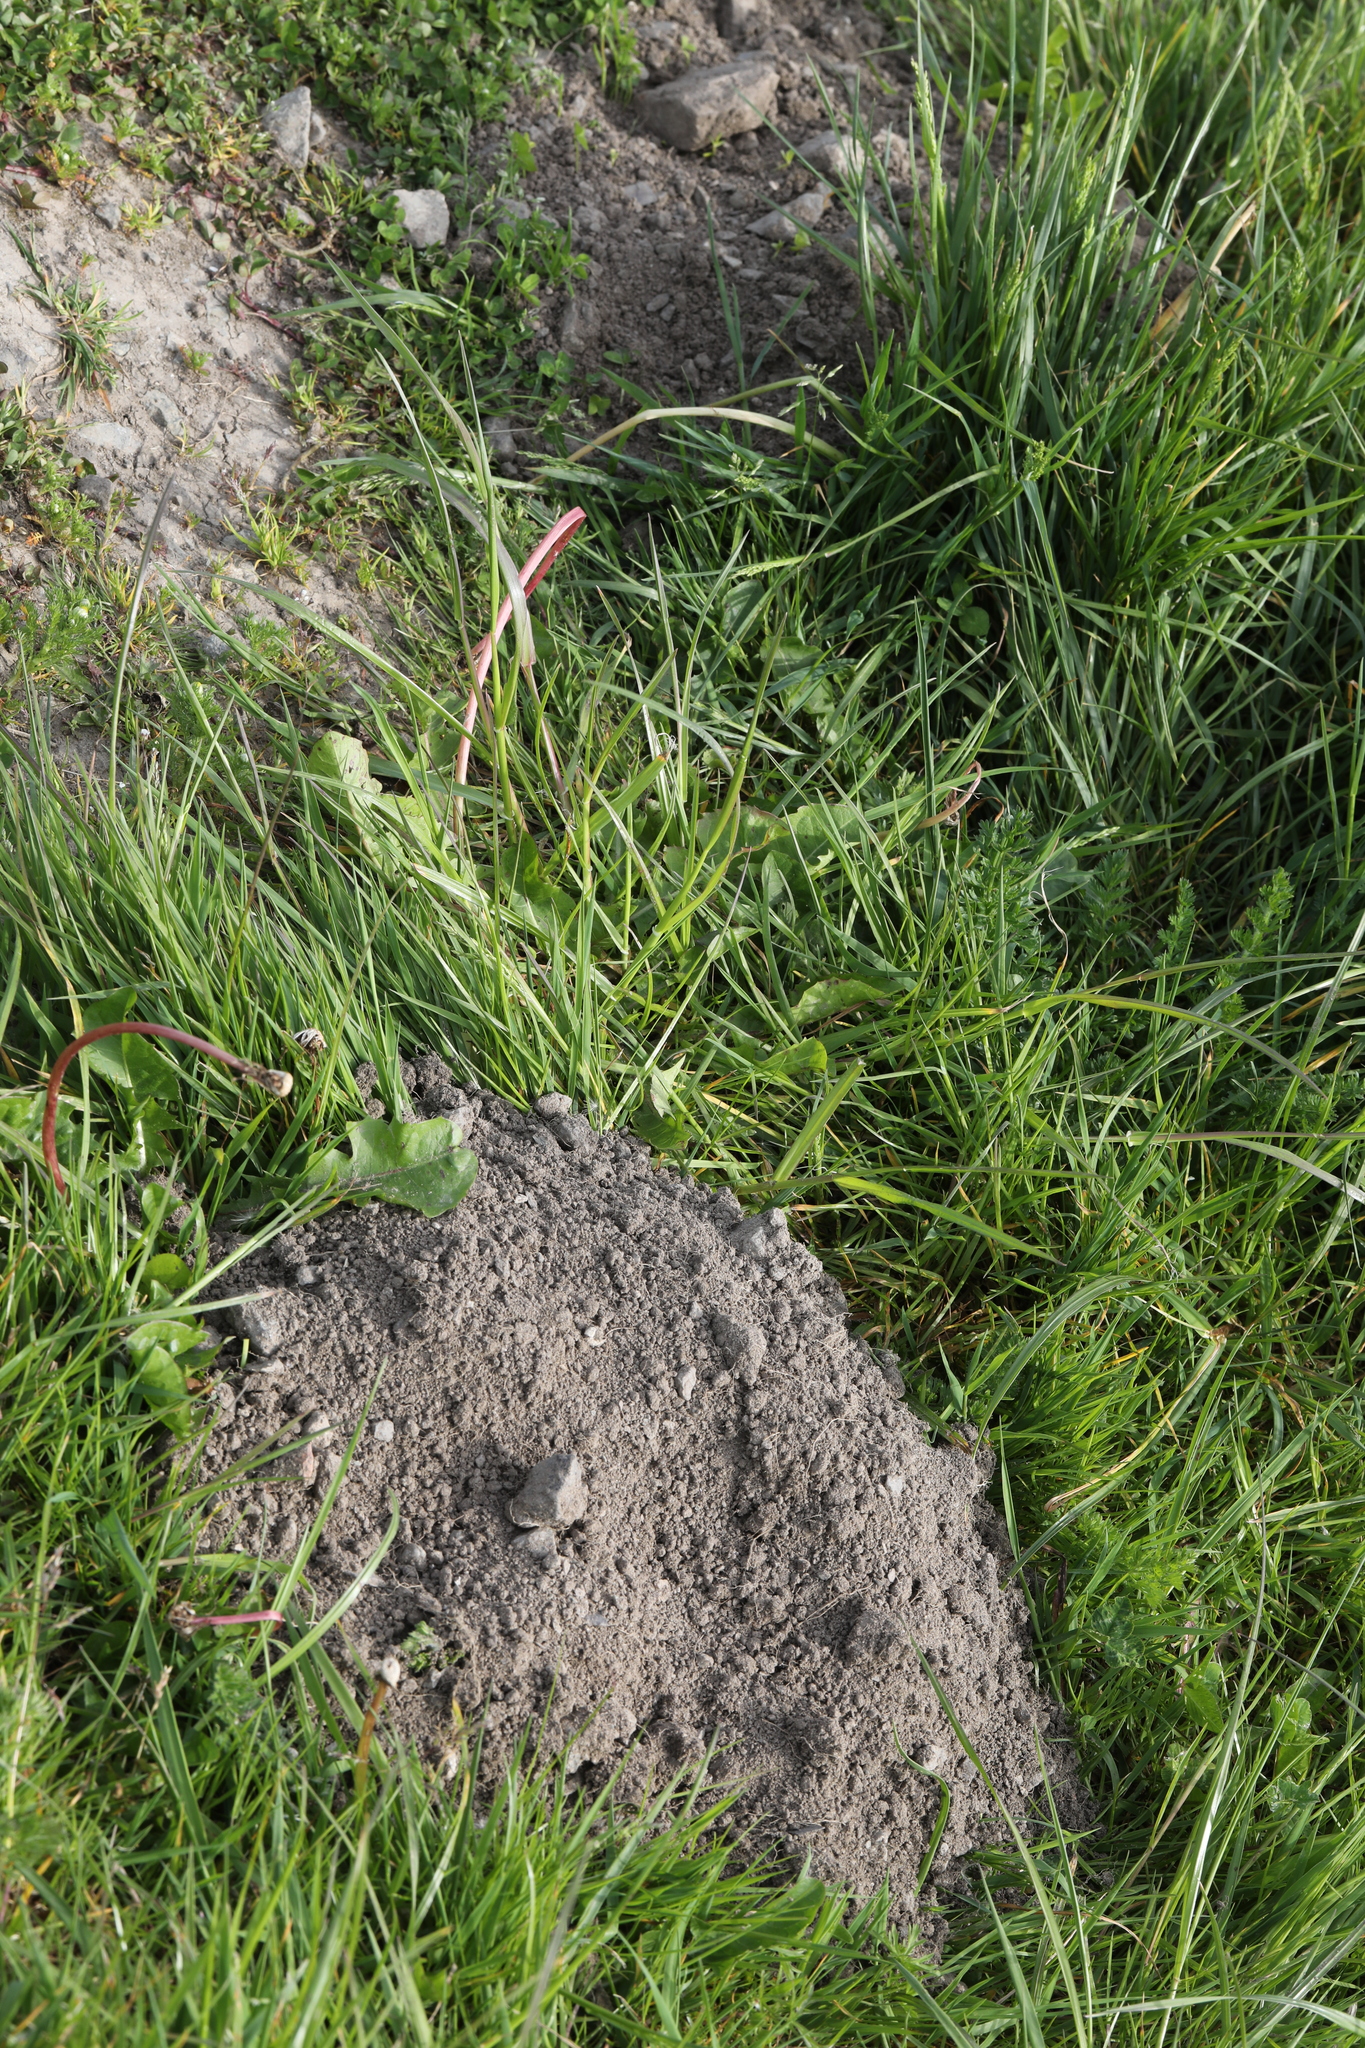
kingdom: Animalia
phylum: Chordata
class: Mammalia
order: Soricomorpha
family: Talpidae
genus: Talpa
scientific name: Talpa europaea
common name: European mole
